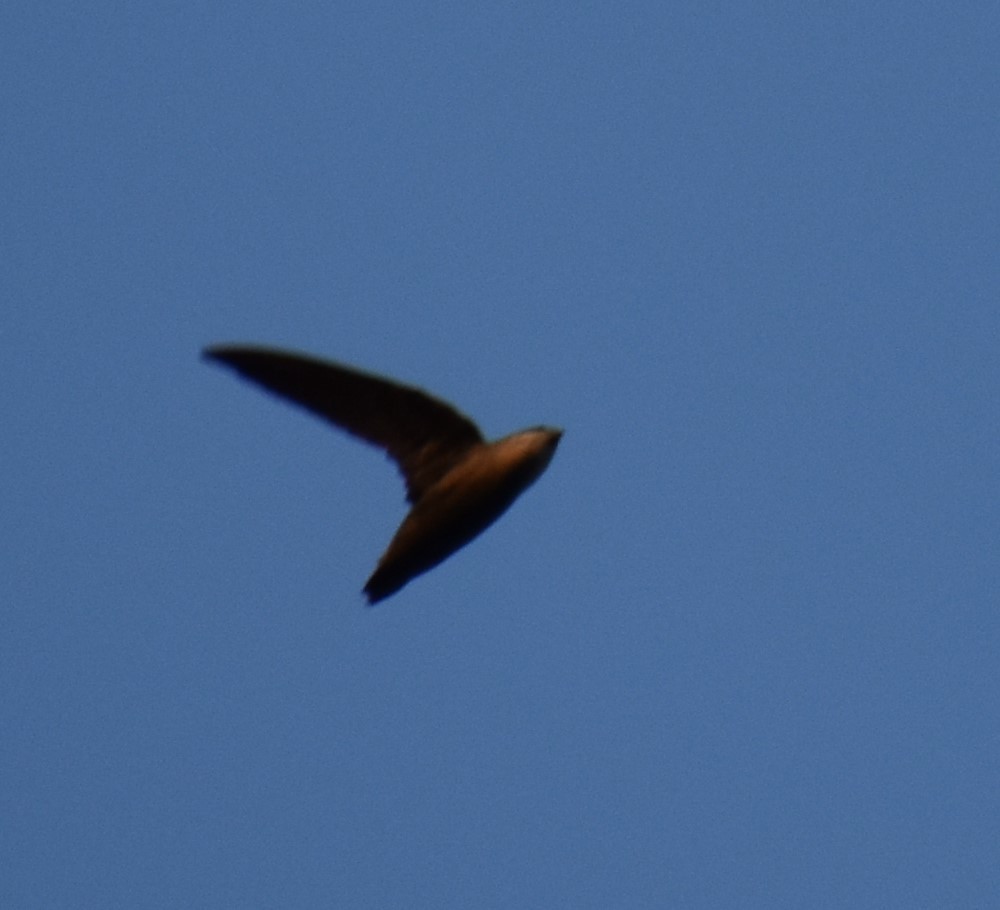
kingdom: Animalia
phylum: Chordata
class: Aves
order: Apodiformes
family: Apodidae
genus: Chaetura
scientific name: Chaetura pelagica
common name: Chimney swift
